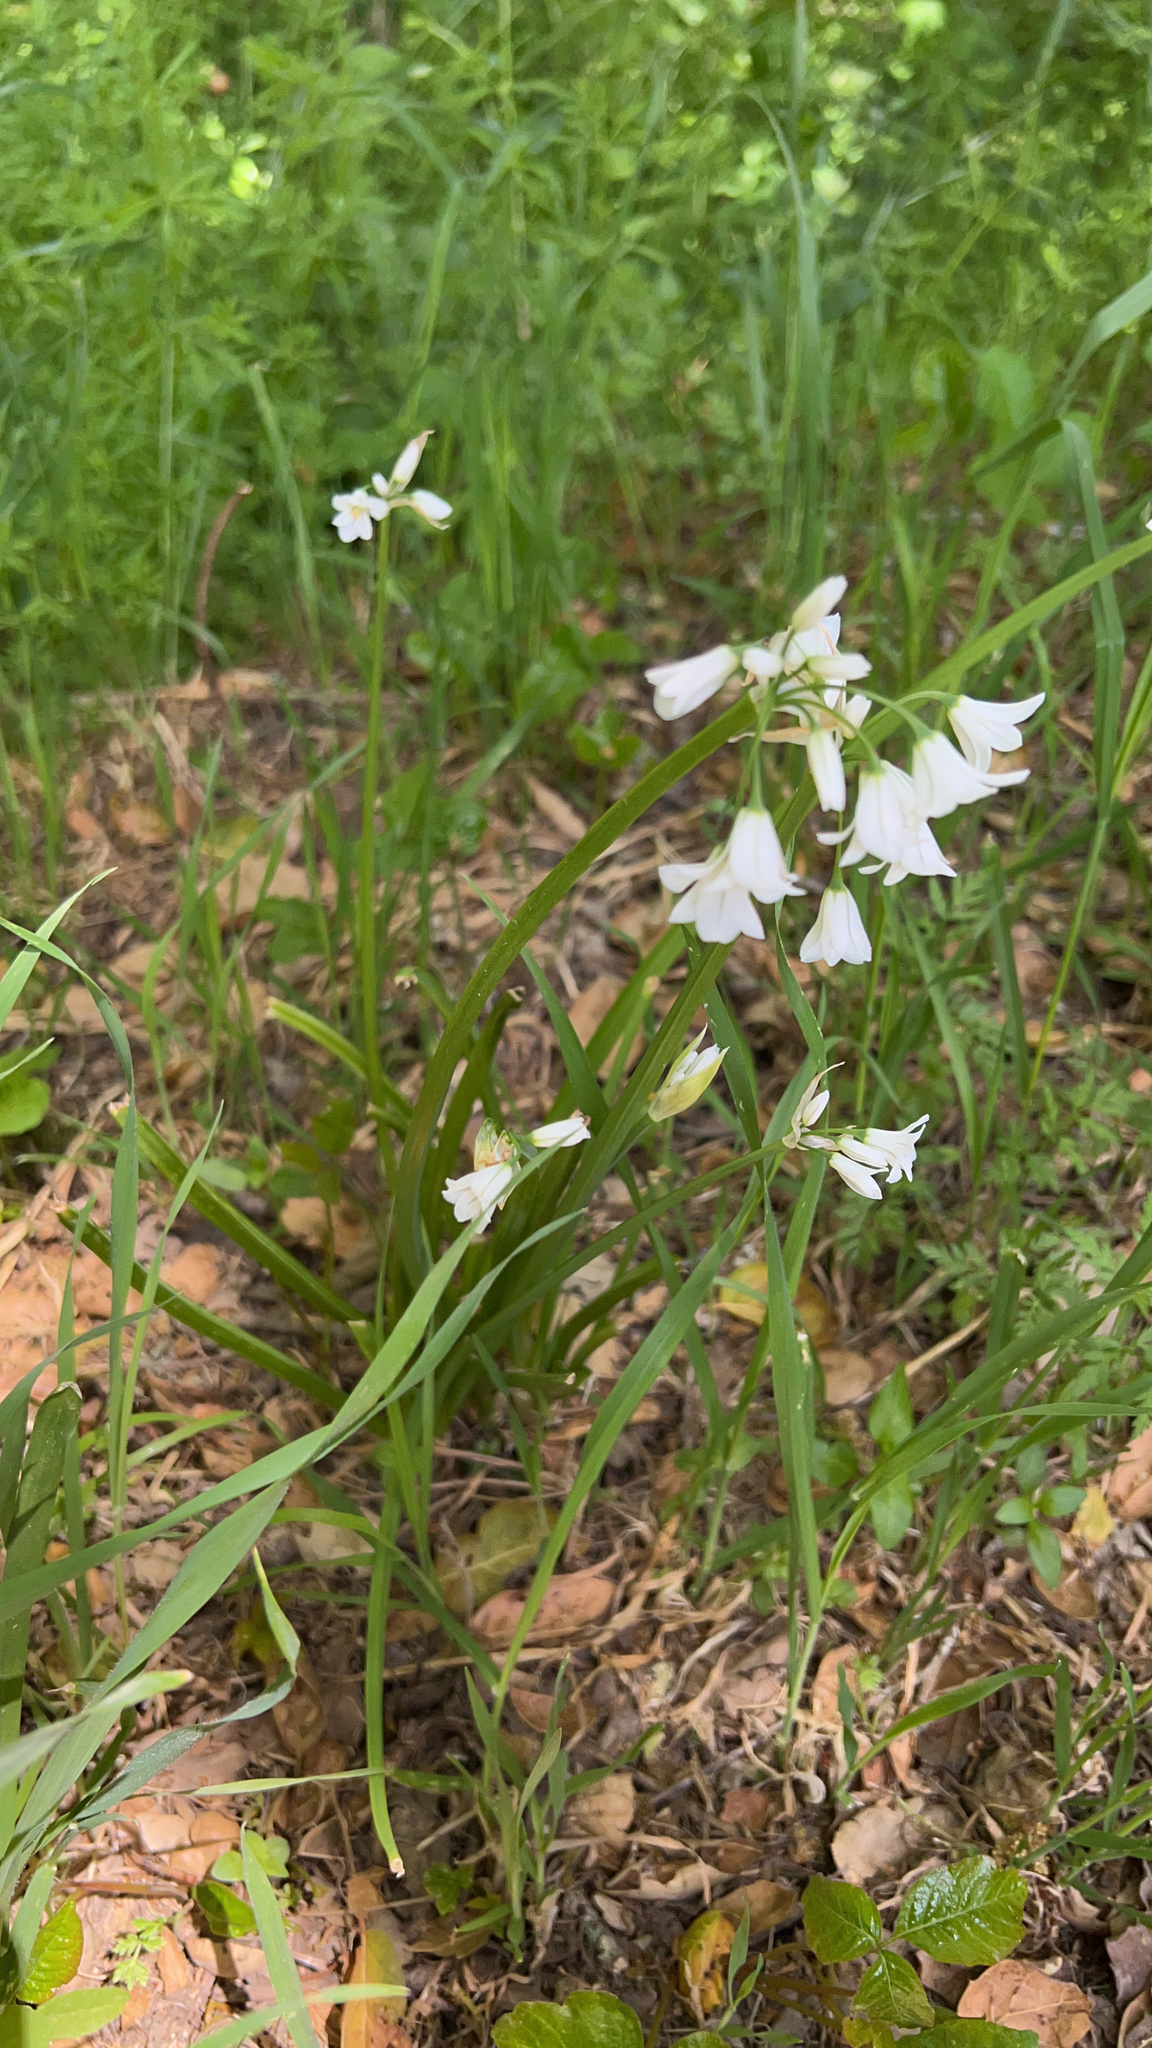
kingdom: Plantae
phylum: Tracheophyta
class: Liliopsida
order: Asparagales
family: Amaryllidaceae
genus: Allium
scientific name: Allium triquetrum
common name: Three-cornered garlic
